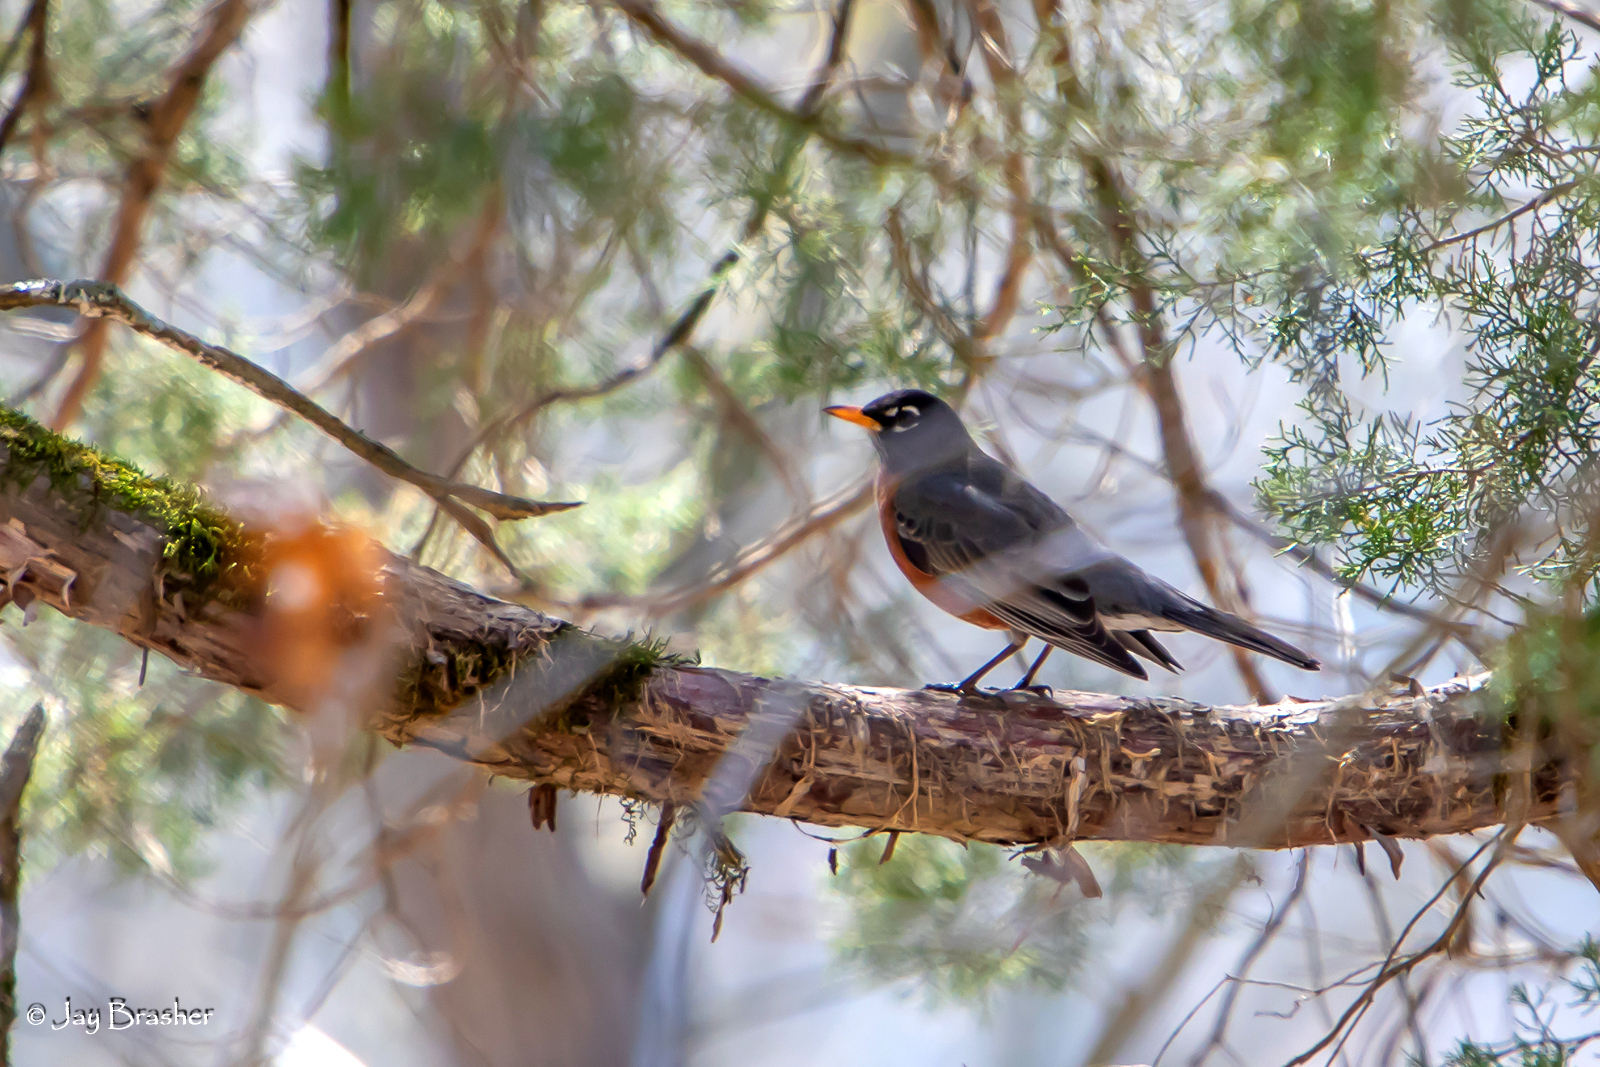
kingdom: Animalia
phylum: Chordata
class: Aves
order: Passeriformes
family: Turdidae
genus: Turdus
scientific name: Turdus migratorius
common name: American robin
